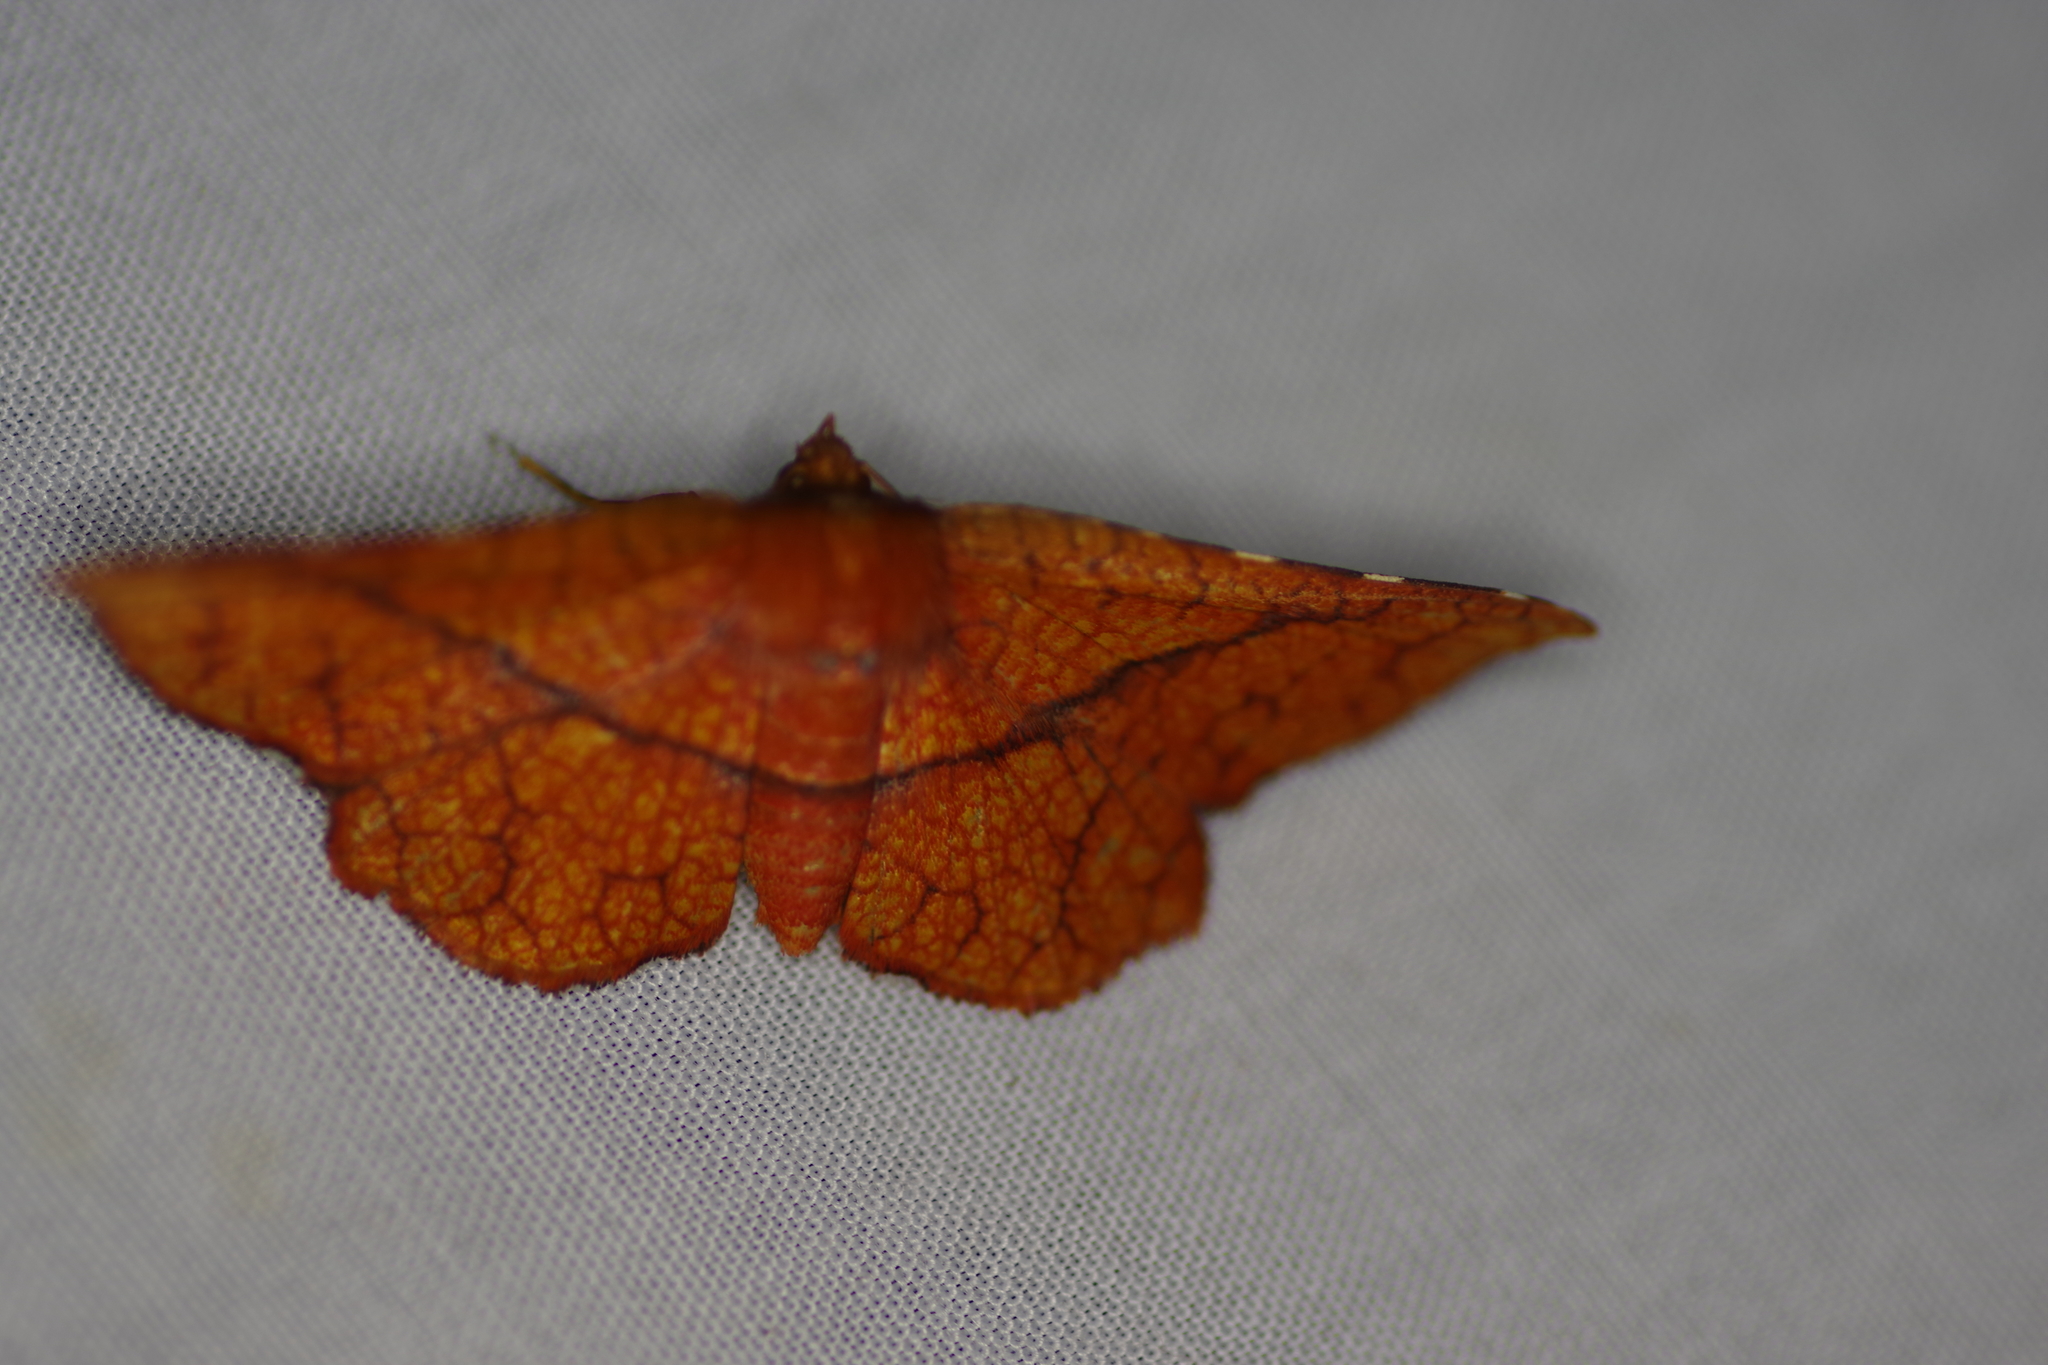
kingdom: Animalia
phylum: Arthropoda
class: Insecta
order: Lepidoptera
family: Thyrididae
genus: Pentina
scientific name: Pentina flammans
